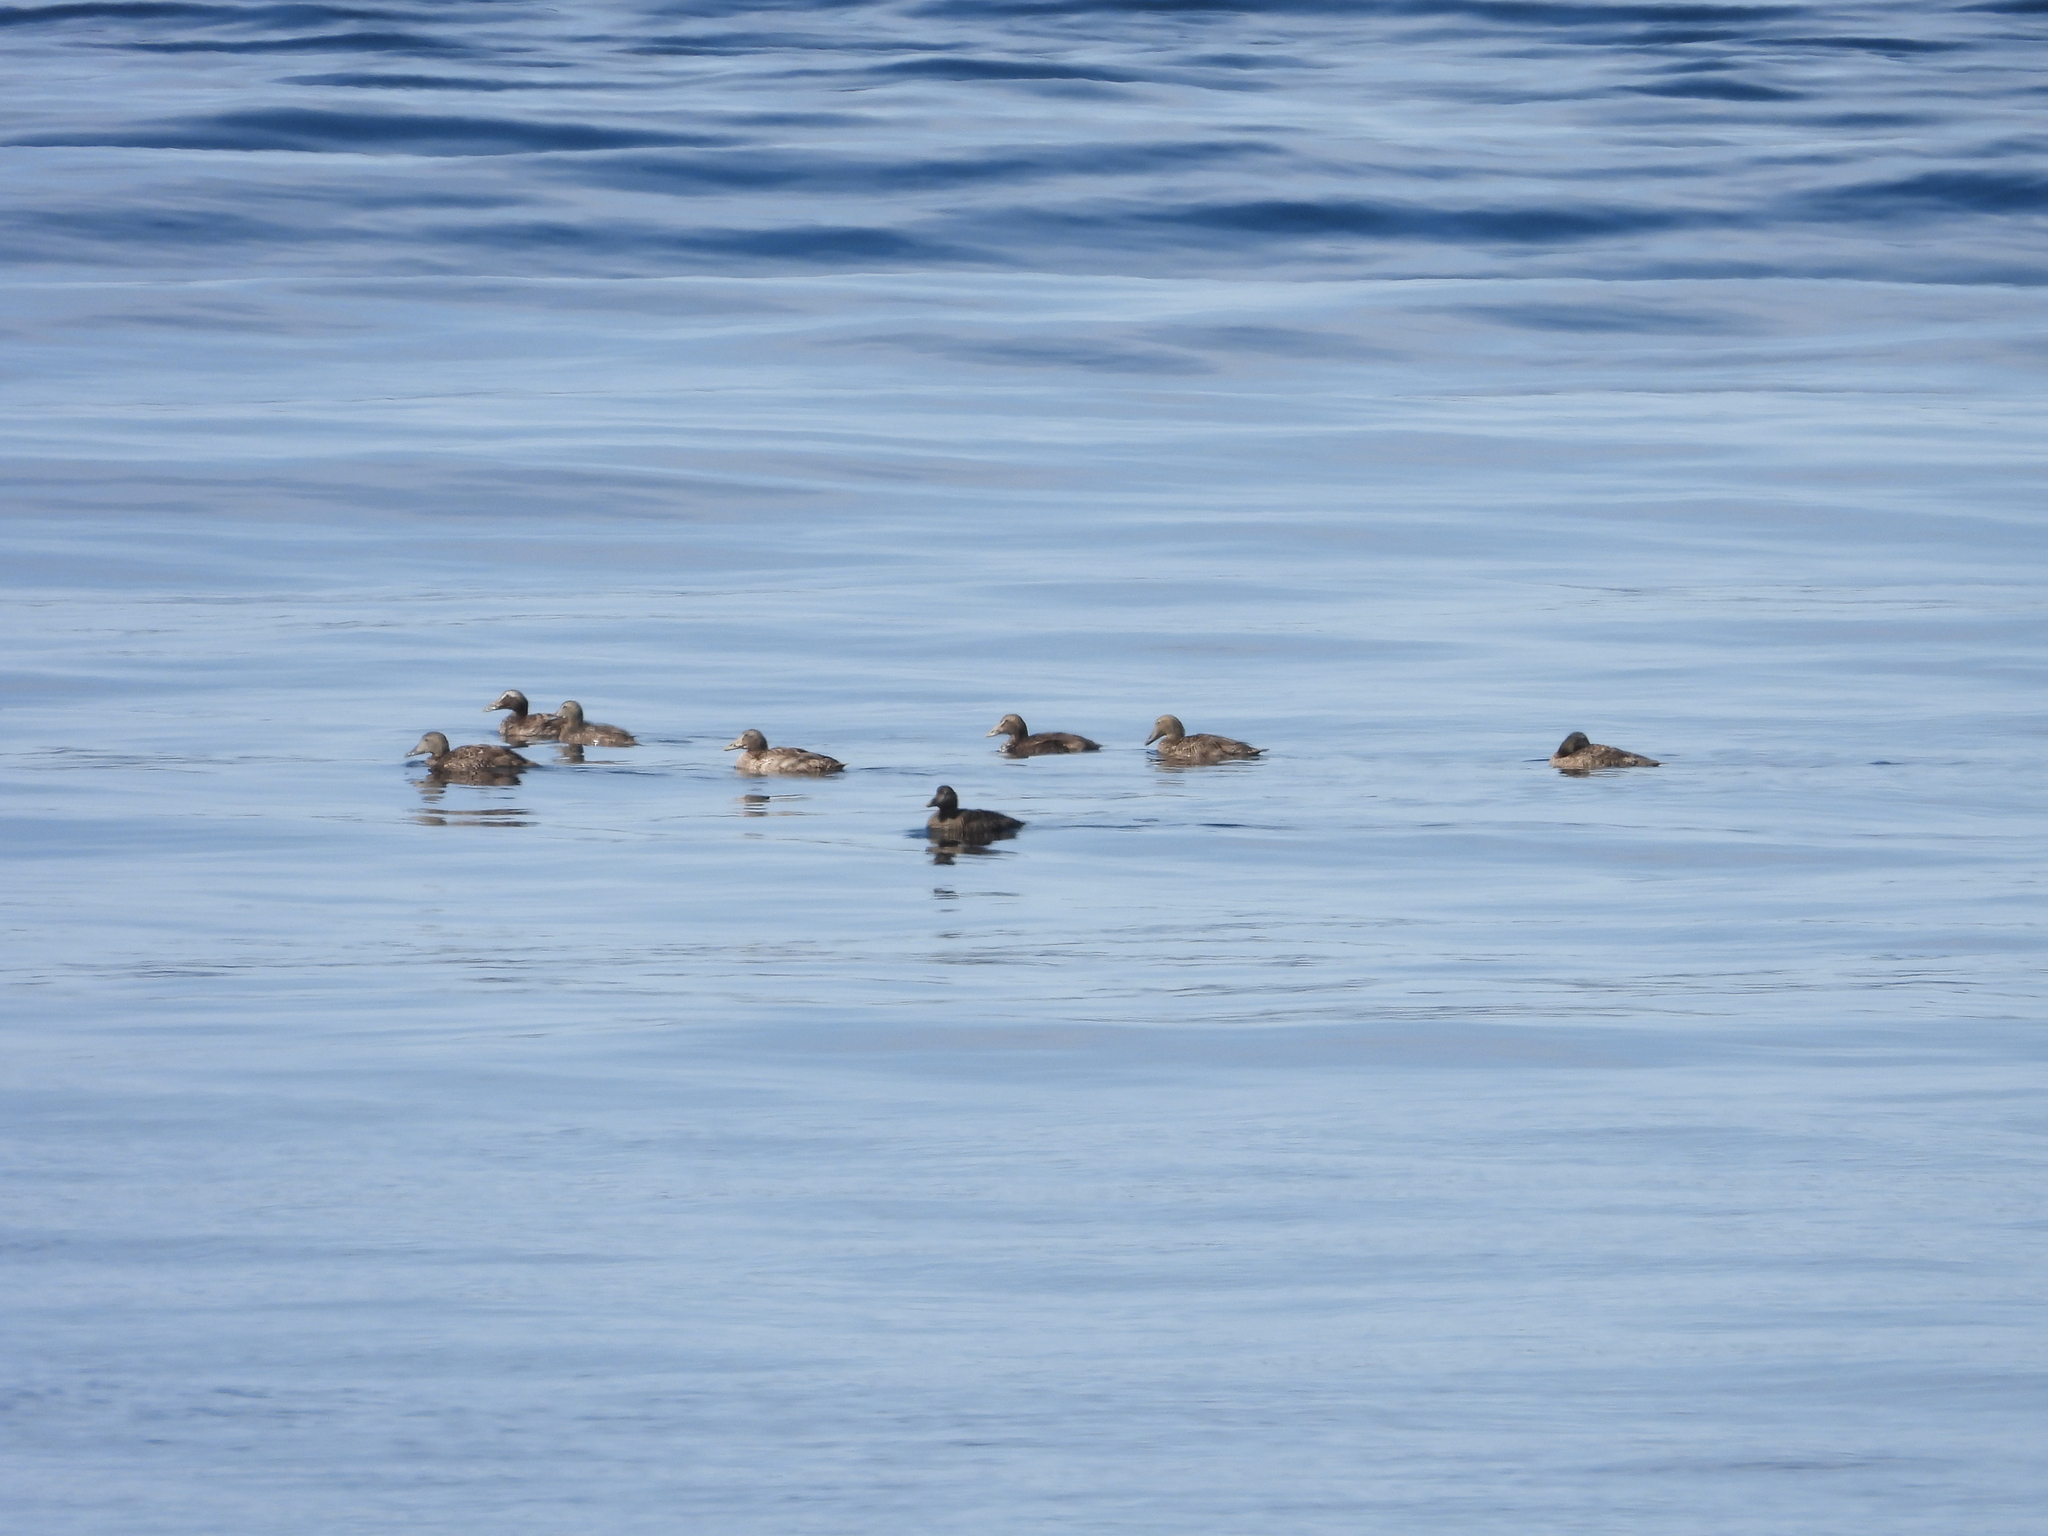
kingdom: Animalia
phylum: Chordata
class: Aves
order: Anseriformes
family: Anatidae
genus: Somateria
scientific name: Somateria mollissima
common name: Common eider
